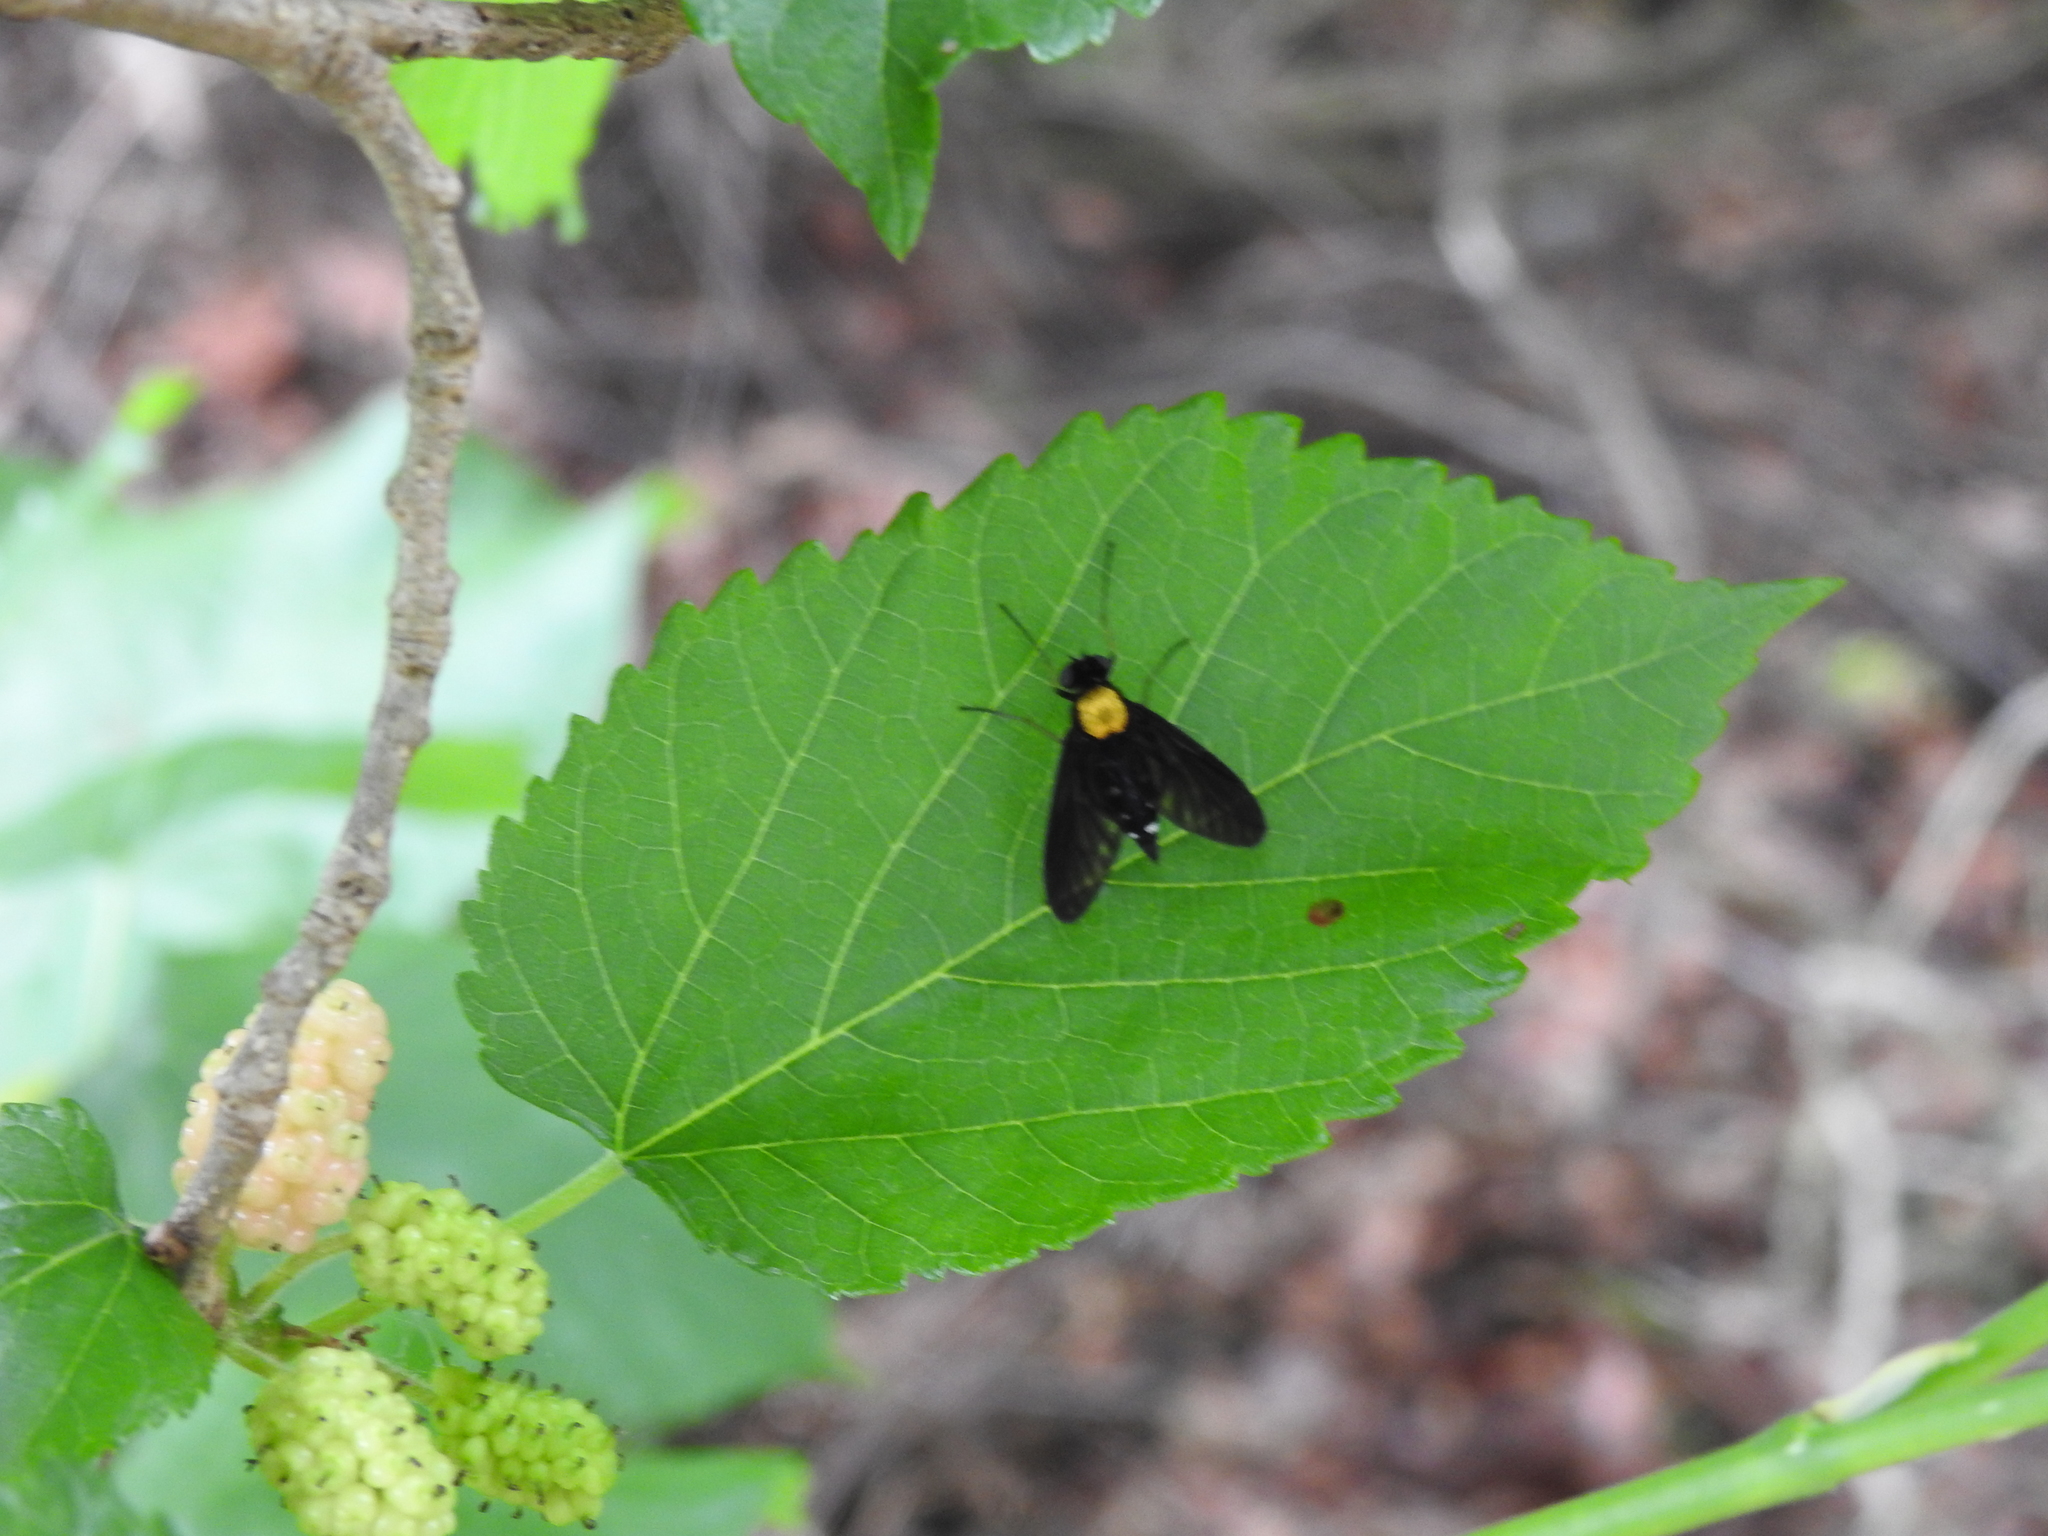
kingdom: Animalia
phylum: Arthropoda
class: Insecta
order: Diptera
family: Rhagionidae
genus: Chrysopilus
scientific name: Chrysopilus thoracicus
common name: Golden-backed snipe fly
